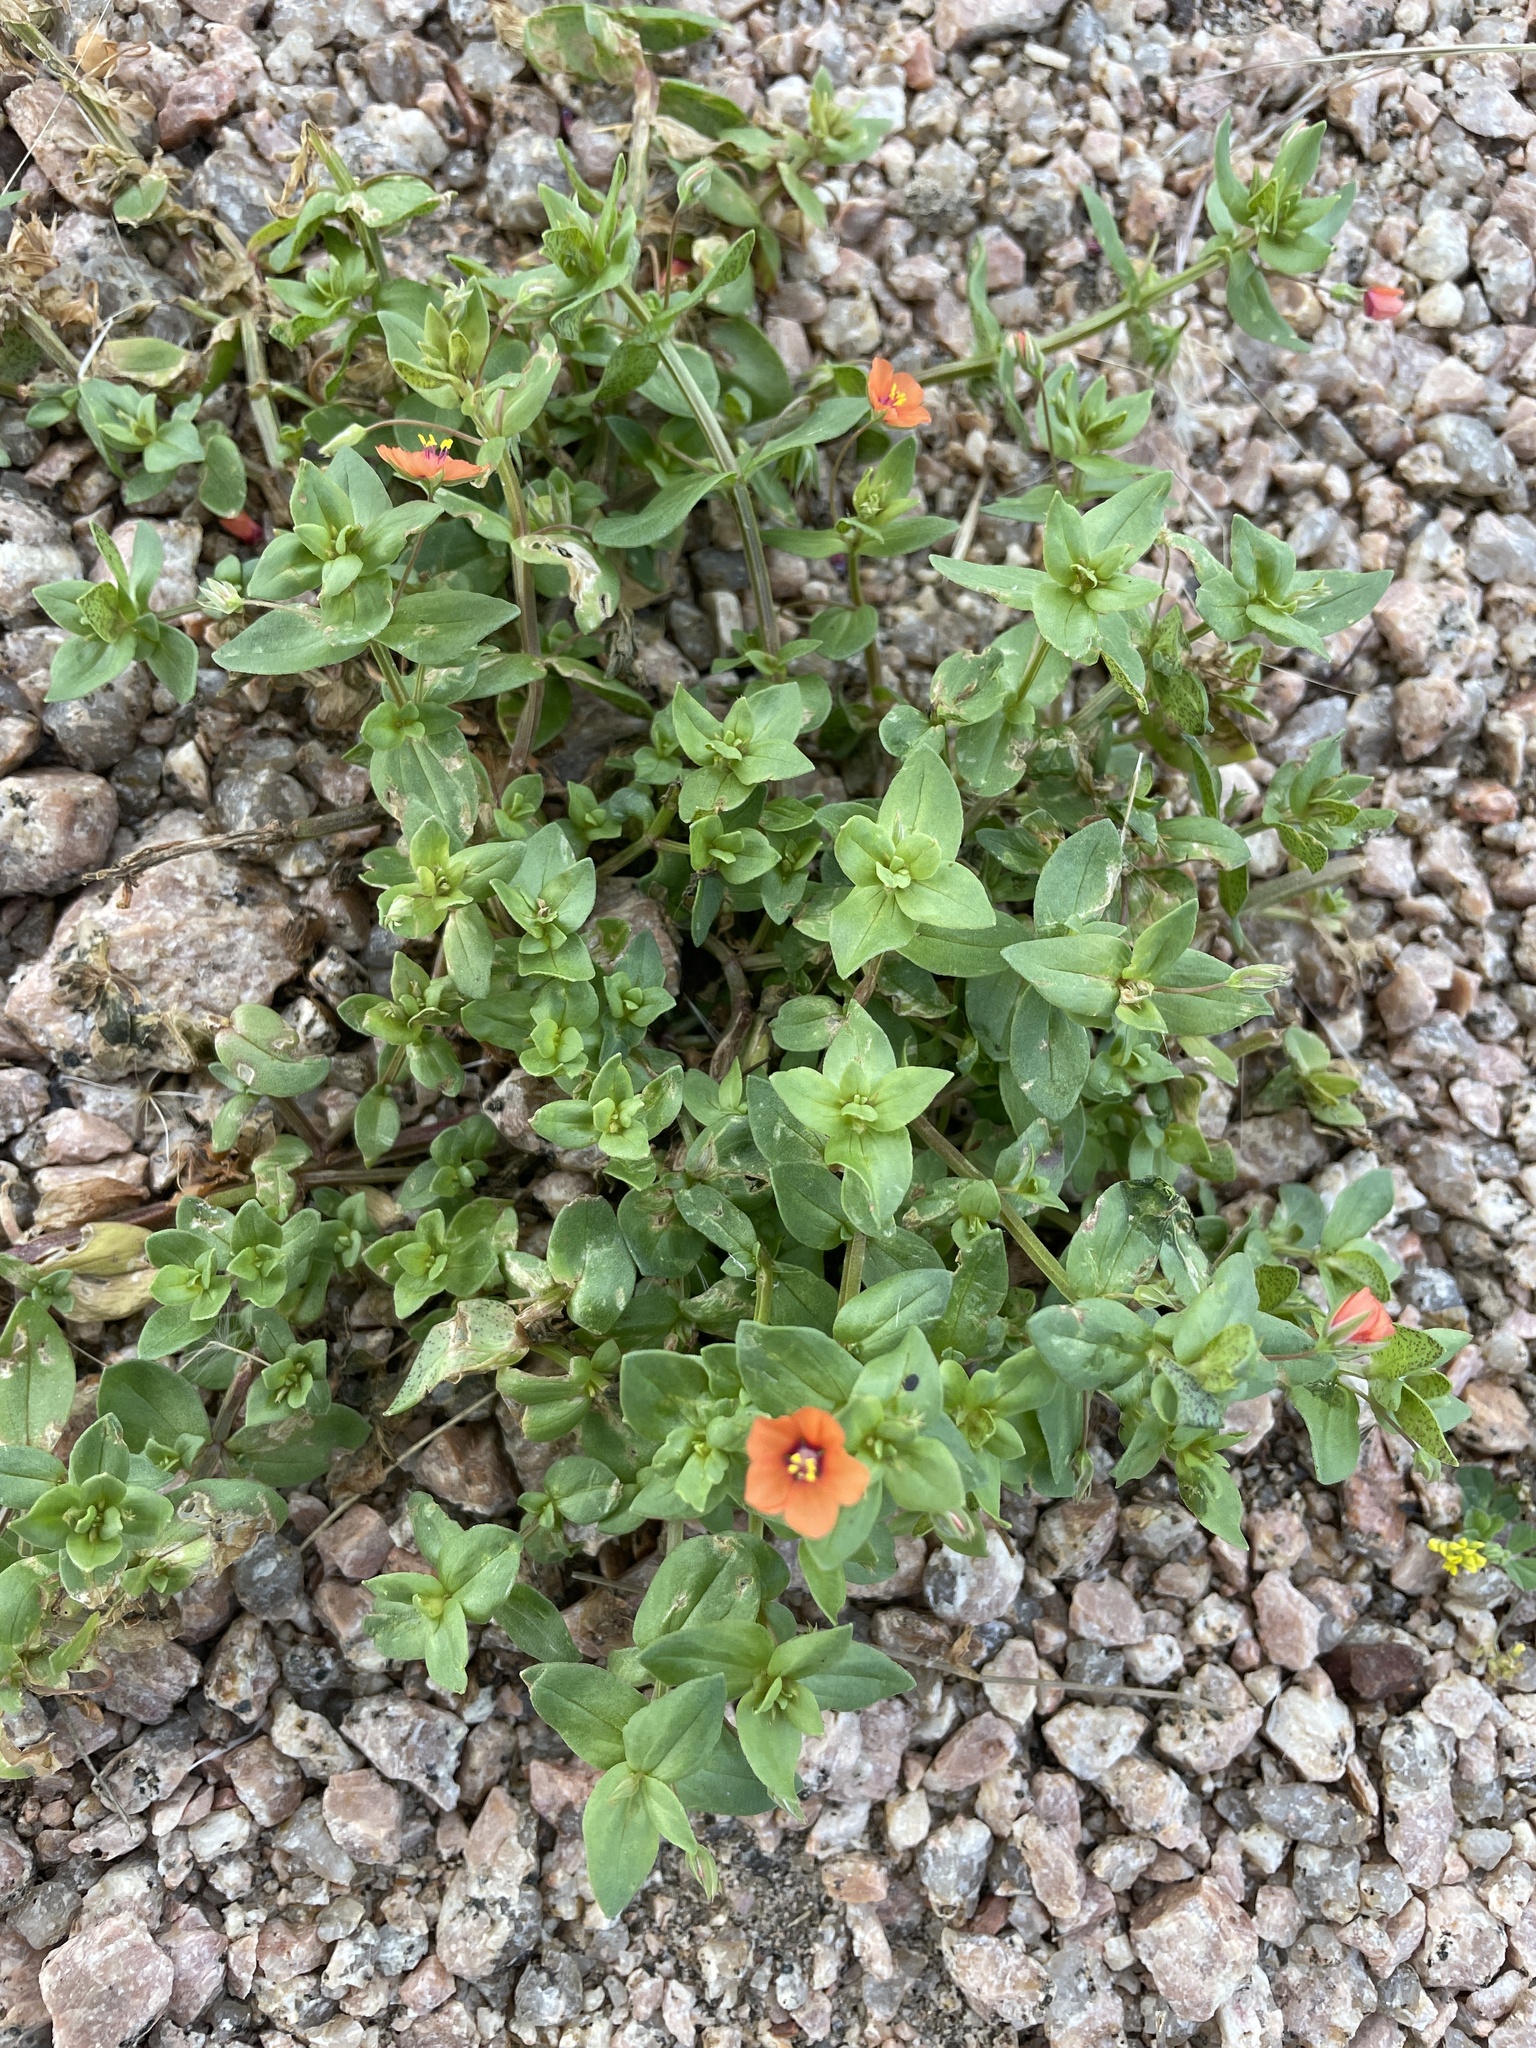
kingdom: Plantae
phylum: Tracheophyta
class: Magnoliopsida
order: Ericales
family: Primulaceae
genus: Lysimachia
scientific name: Lysimachia arvensis
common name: Scarlet pimpernel
